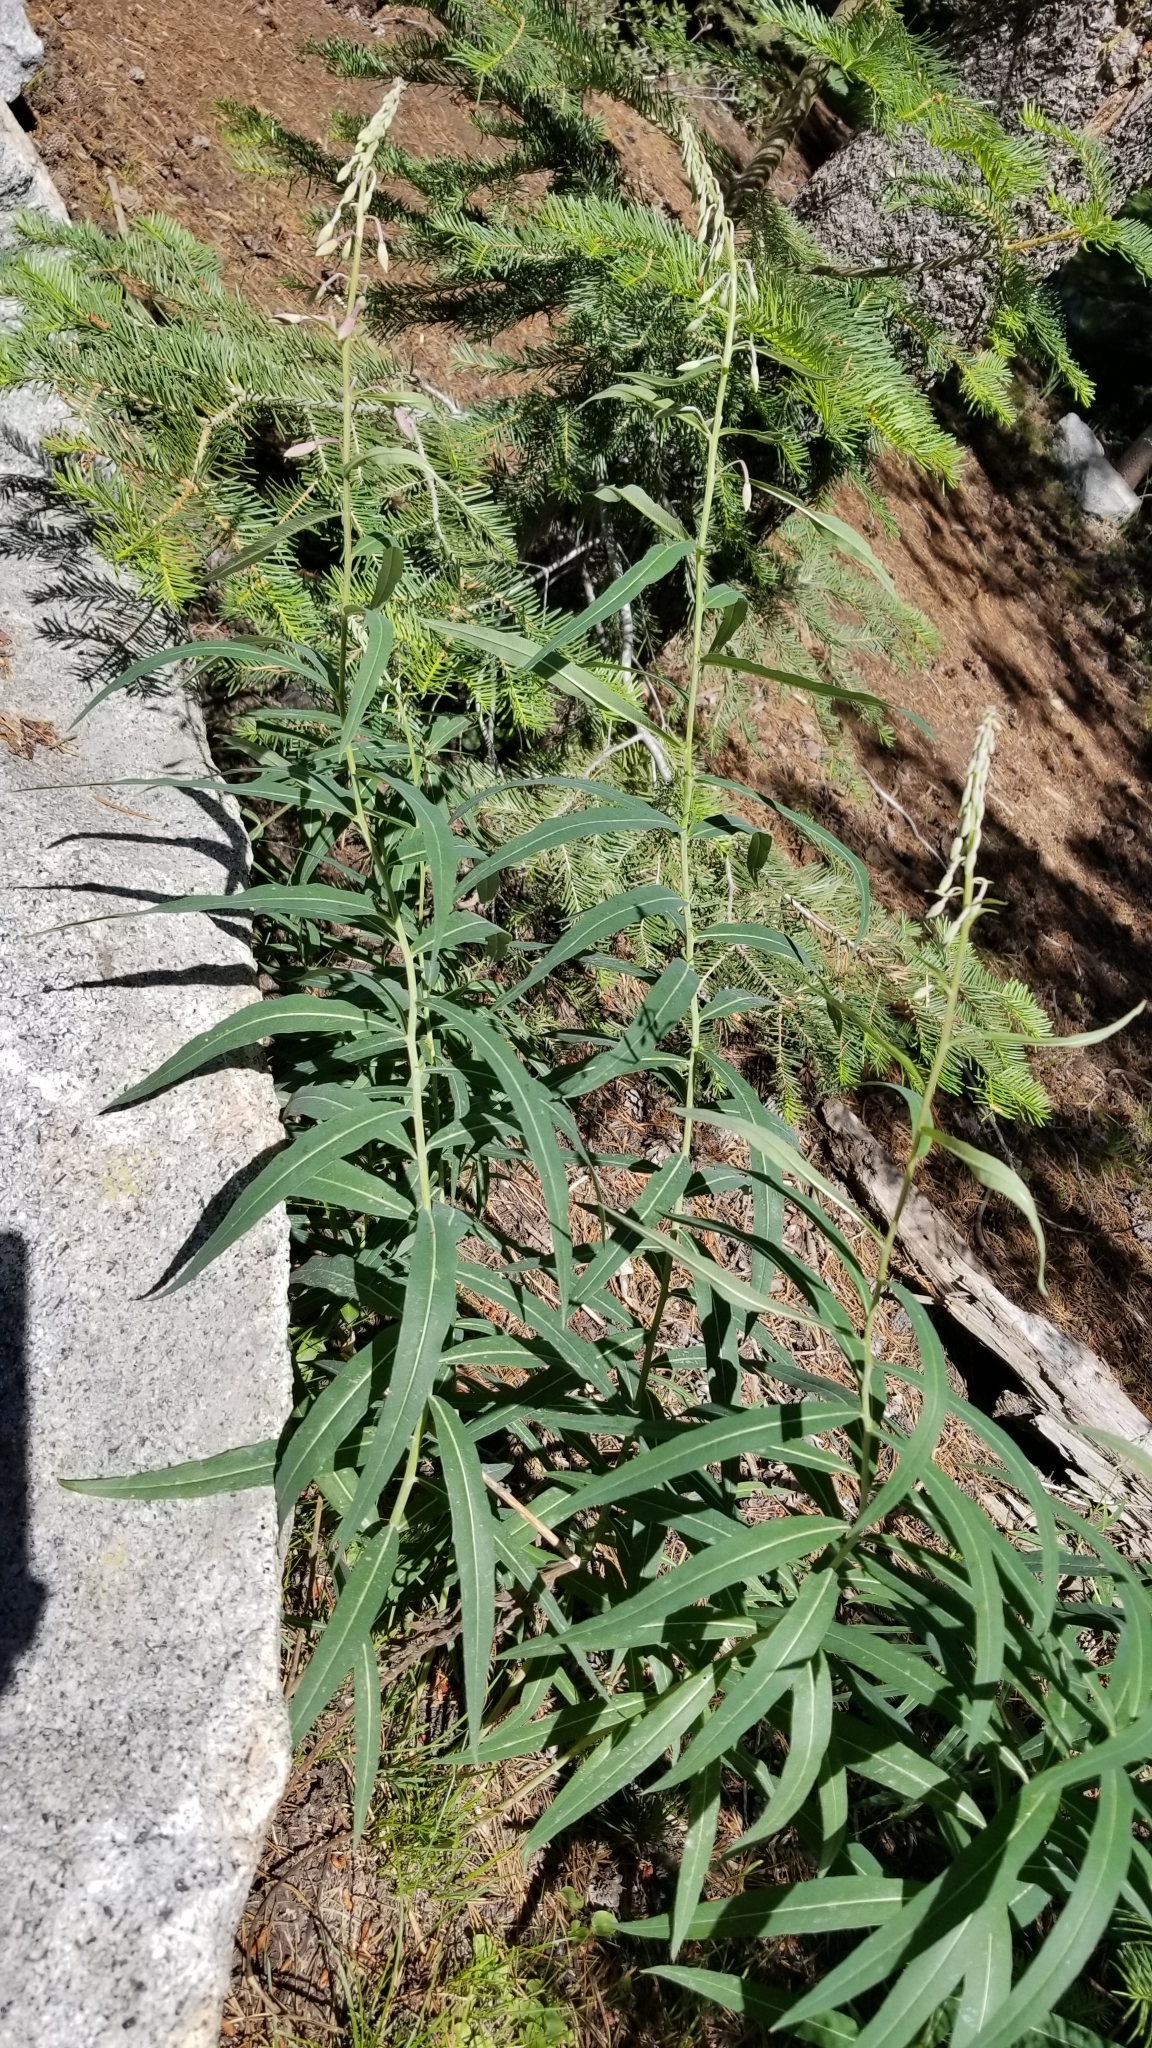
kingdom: Plantae
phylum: Tracheophyta
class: Magnoliopsida
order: Myrtales
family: Onagraceae
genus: Chamaenerion
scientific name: Chamaenerion angustifolium
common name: Fireweed
